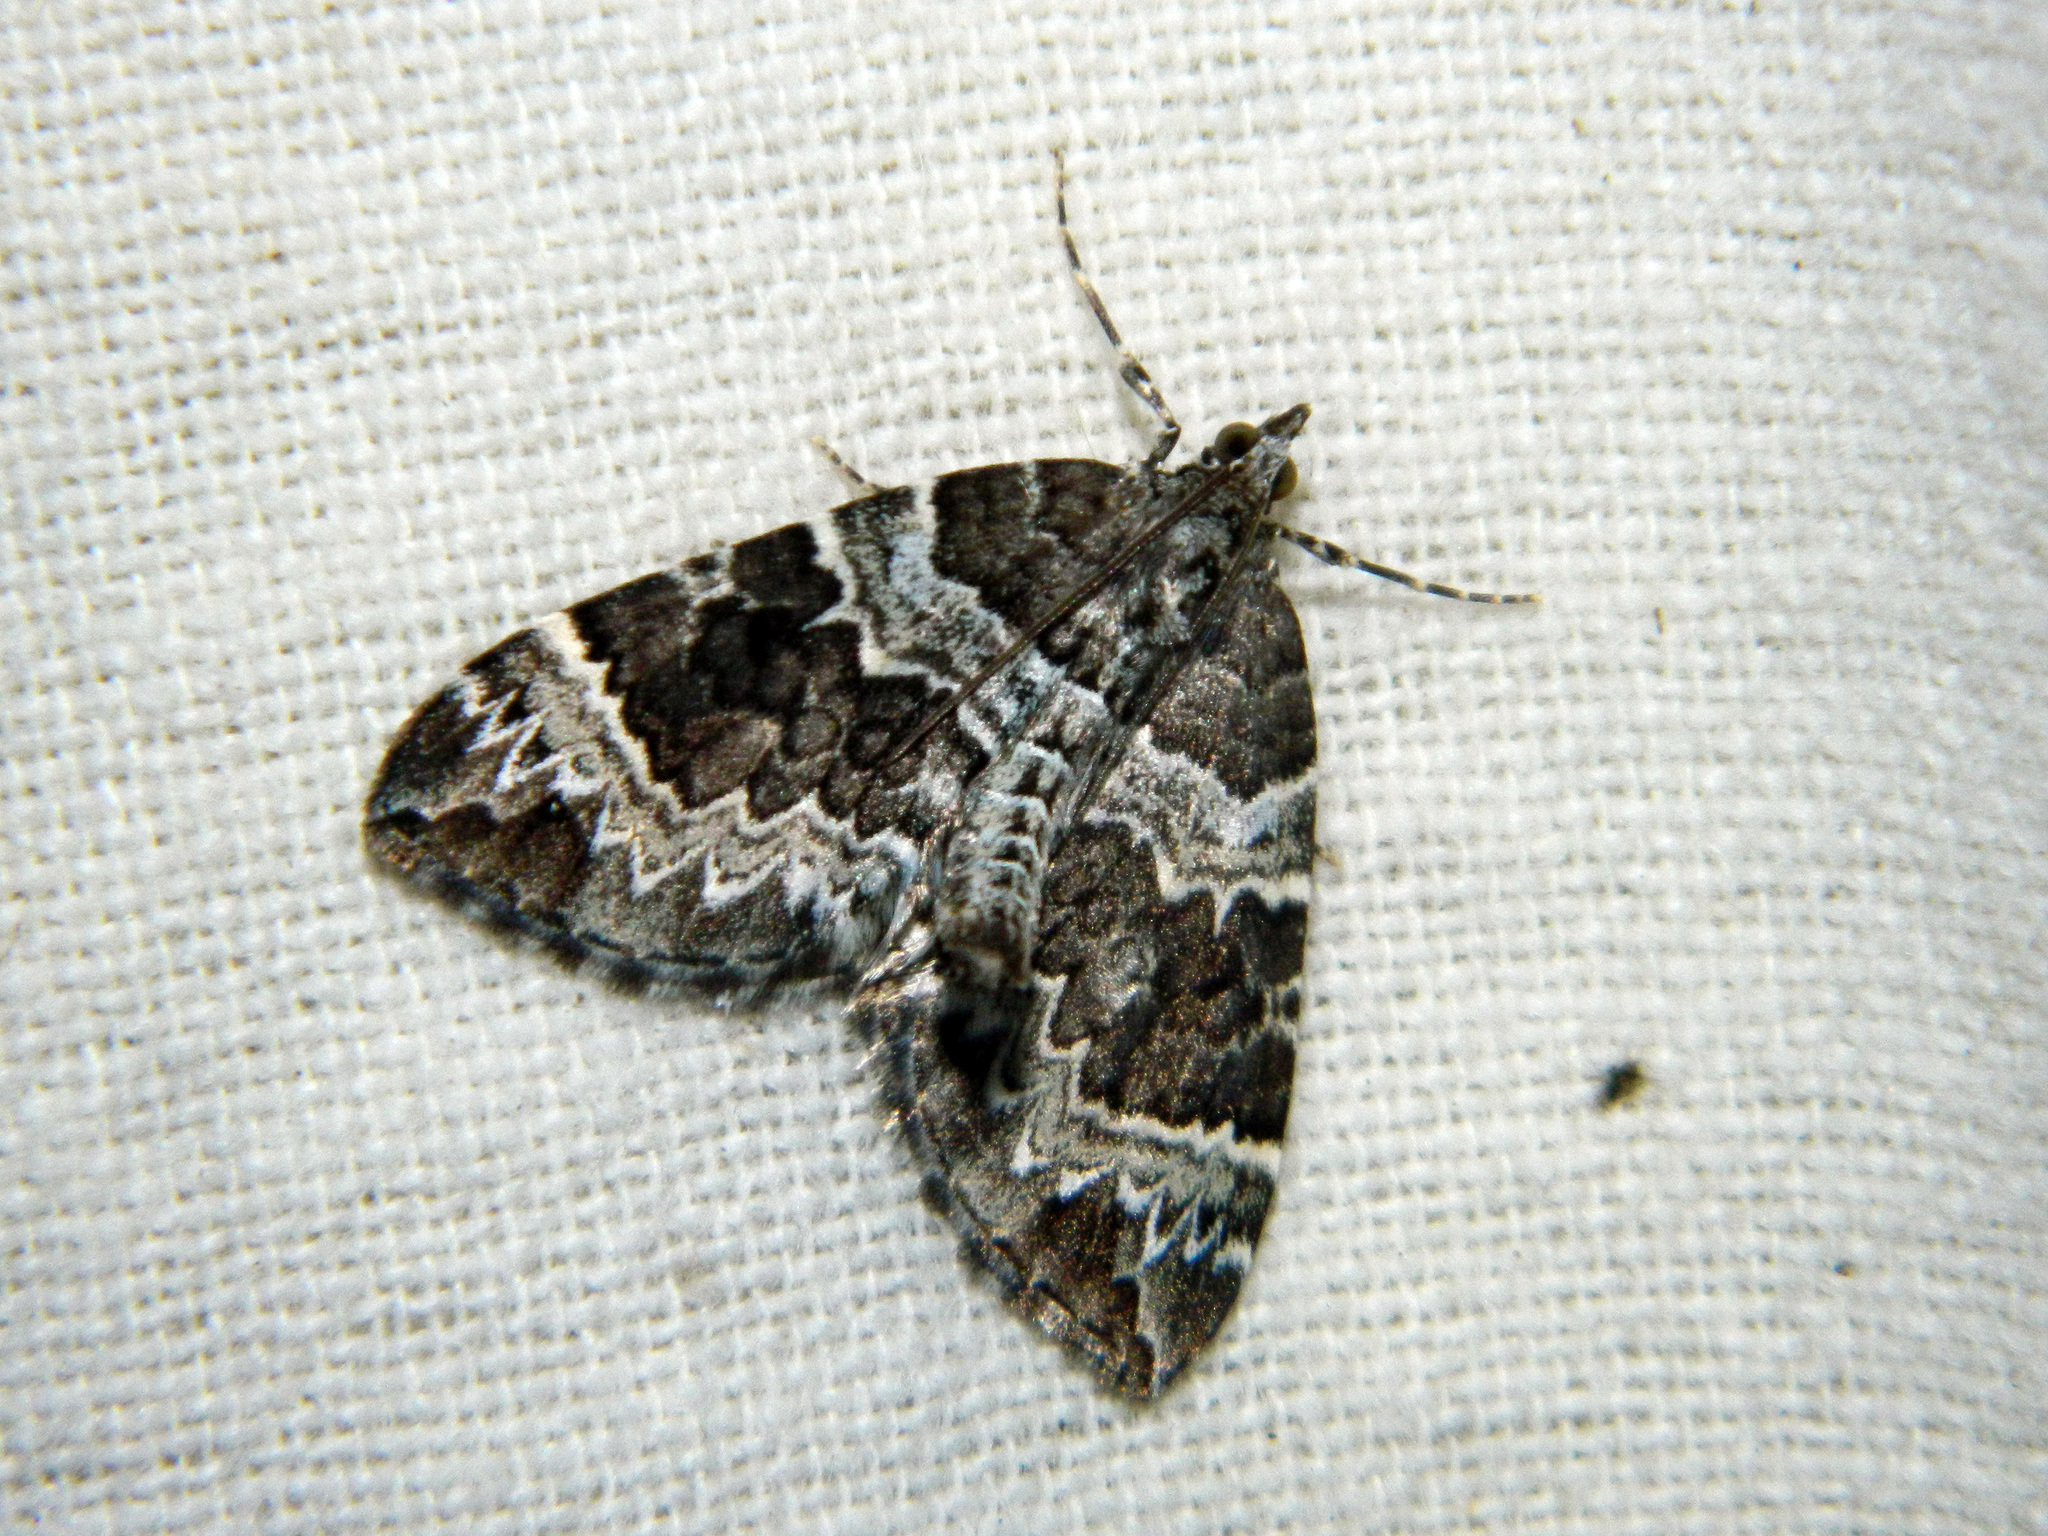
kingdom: Animalia
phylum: Arthropoda
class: Insecta
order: Lepidoptera
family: Geometridae
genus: Eulithis
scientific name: Eulithis explanata
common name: White eulithis
